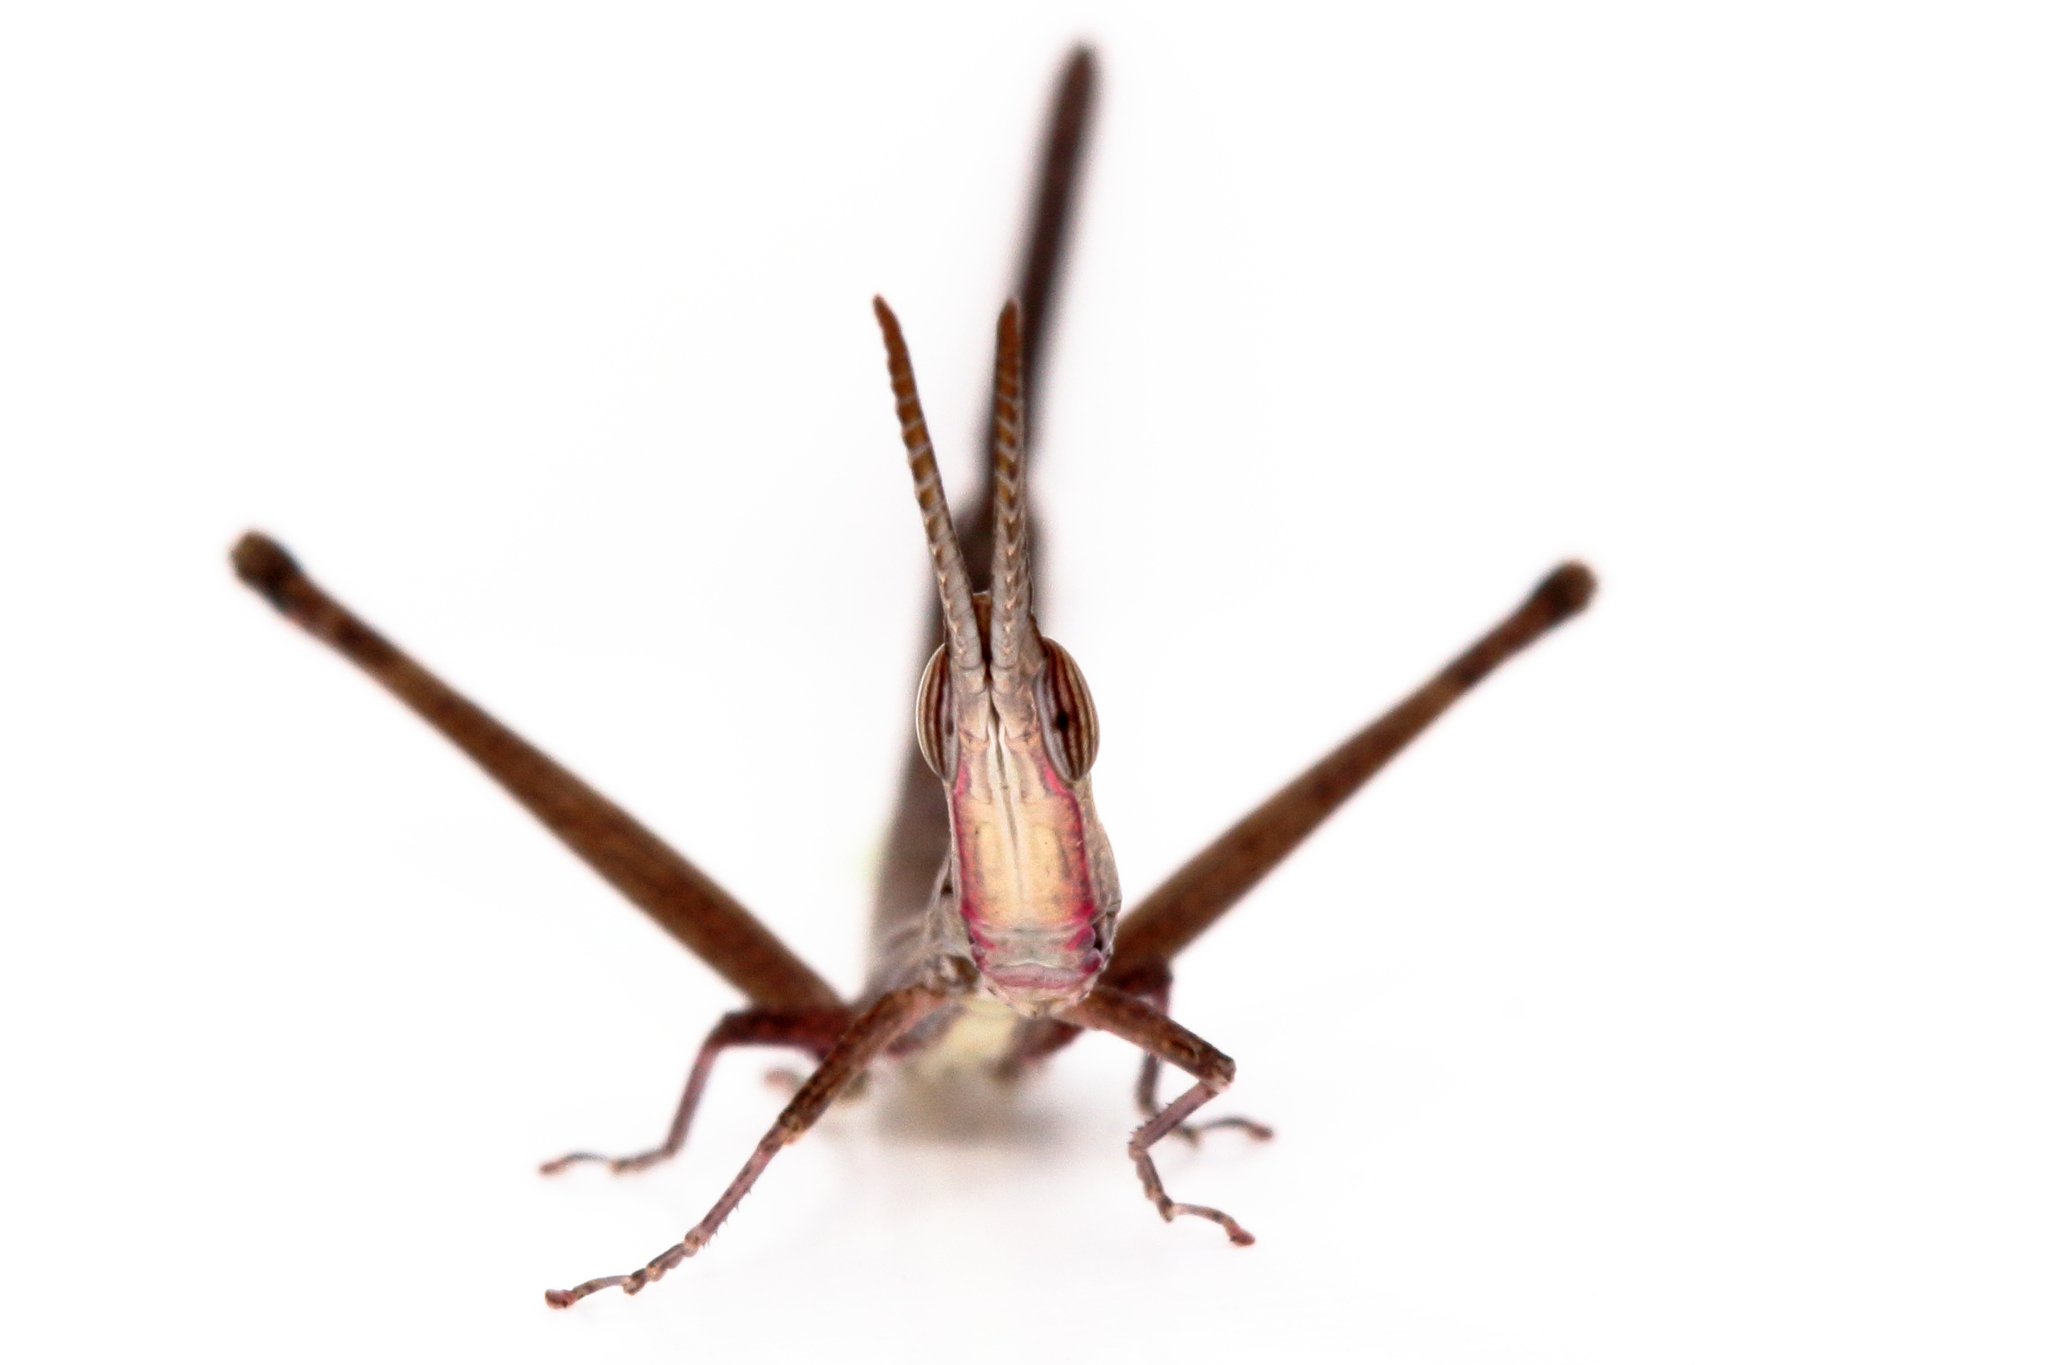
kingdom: Animalia
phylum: Arthropoda
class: Insecta
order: Orthoptera
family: Morabidae
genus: Warramaba
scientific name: Warramaba grandis
